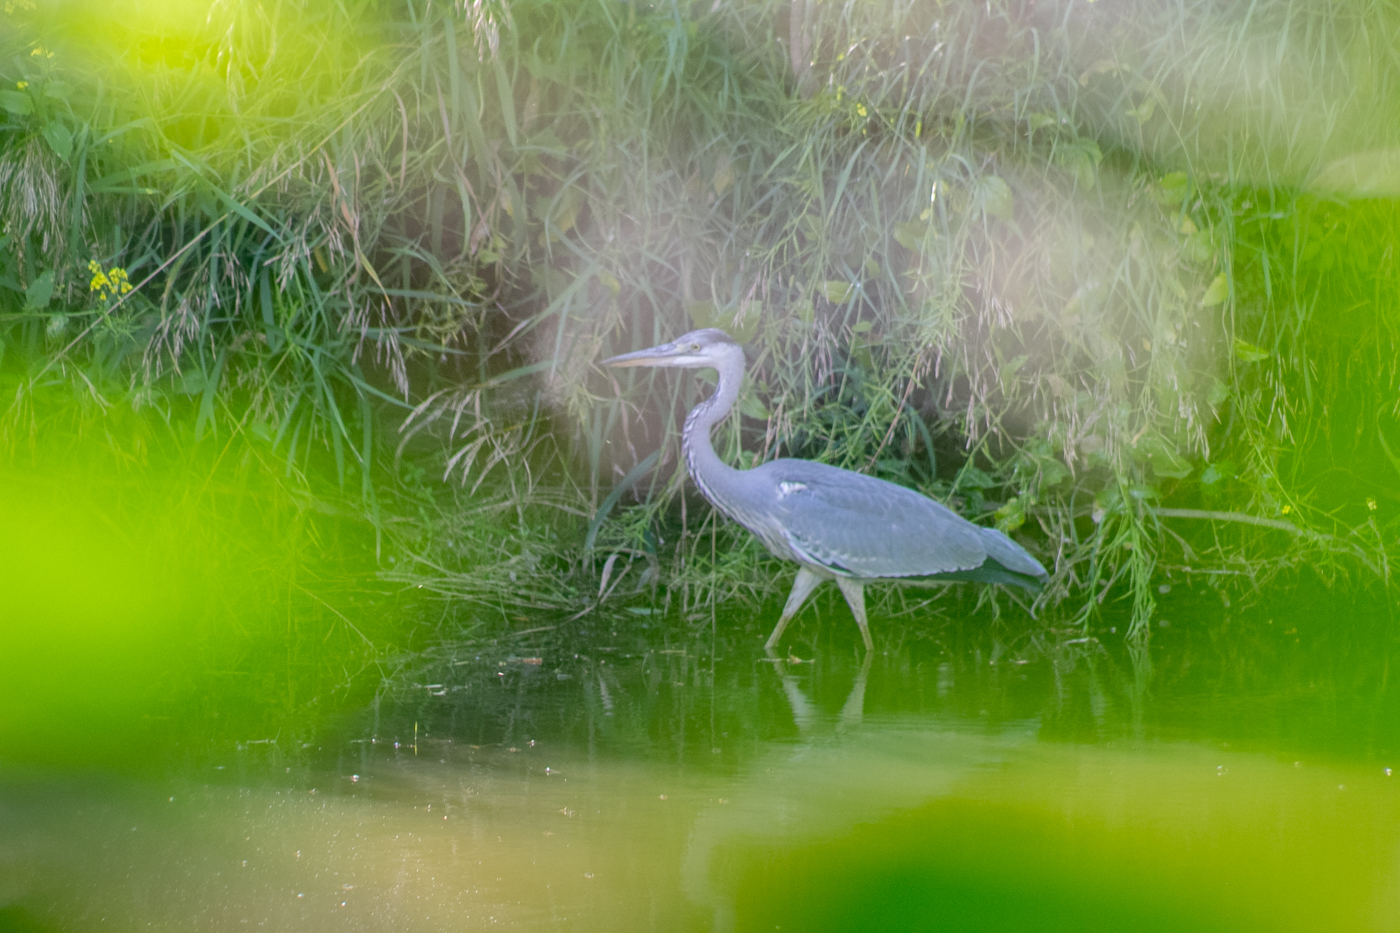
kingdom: Animalia
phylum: Chordata
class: Aves
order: Pelecaniformes
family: Ardeidae
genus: Ardea
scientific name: Ardea cinerea
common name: Grey heron
